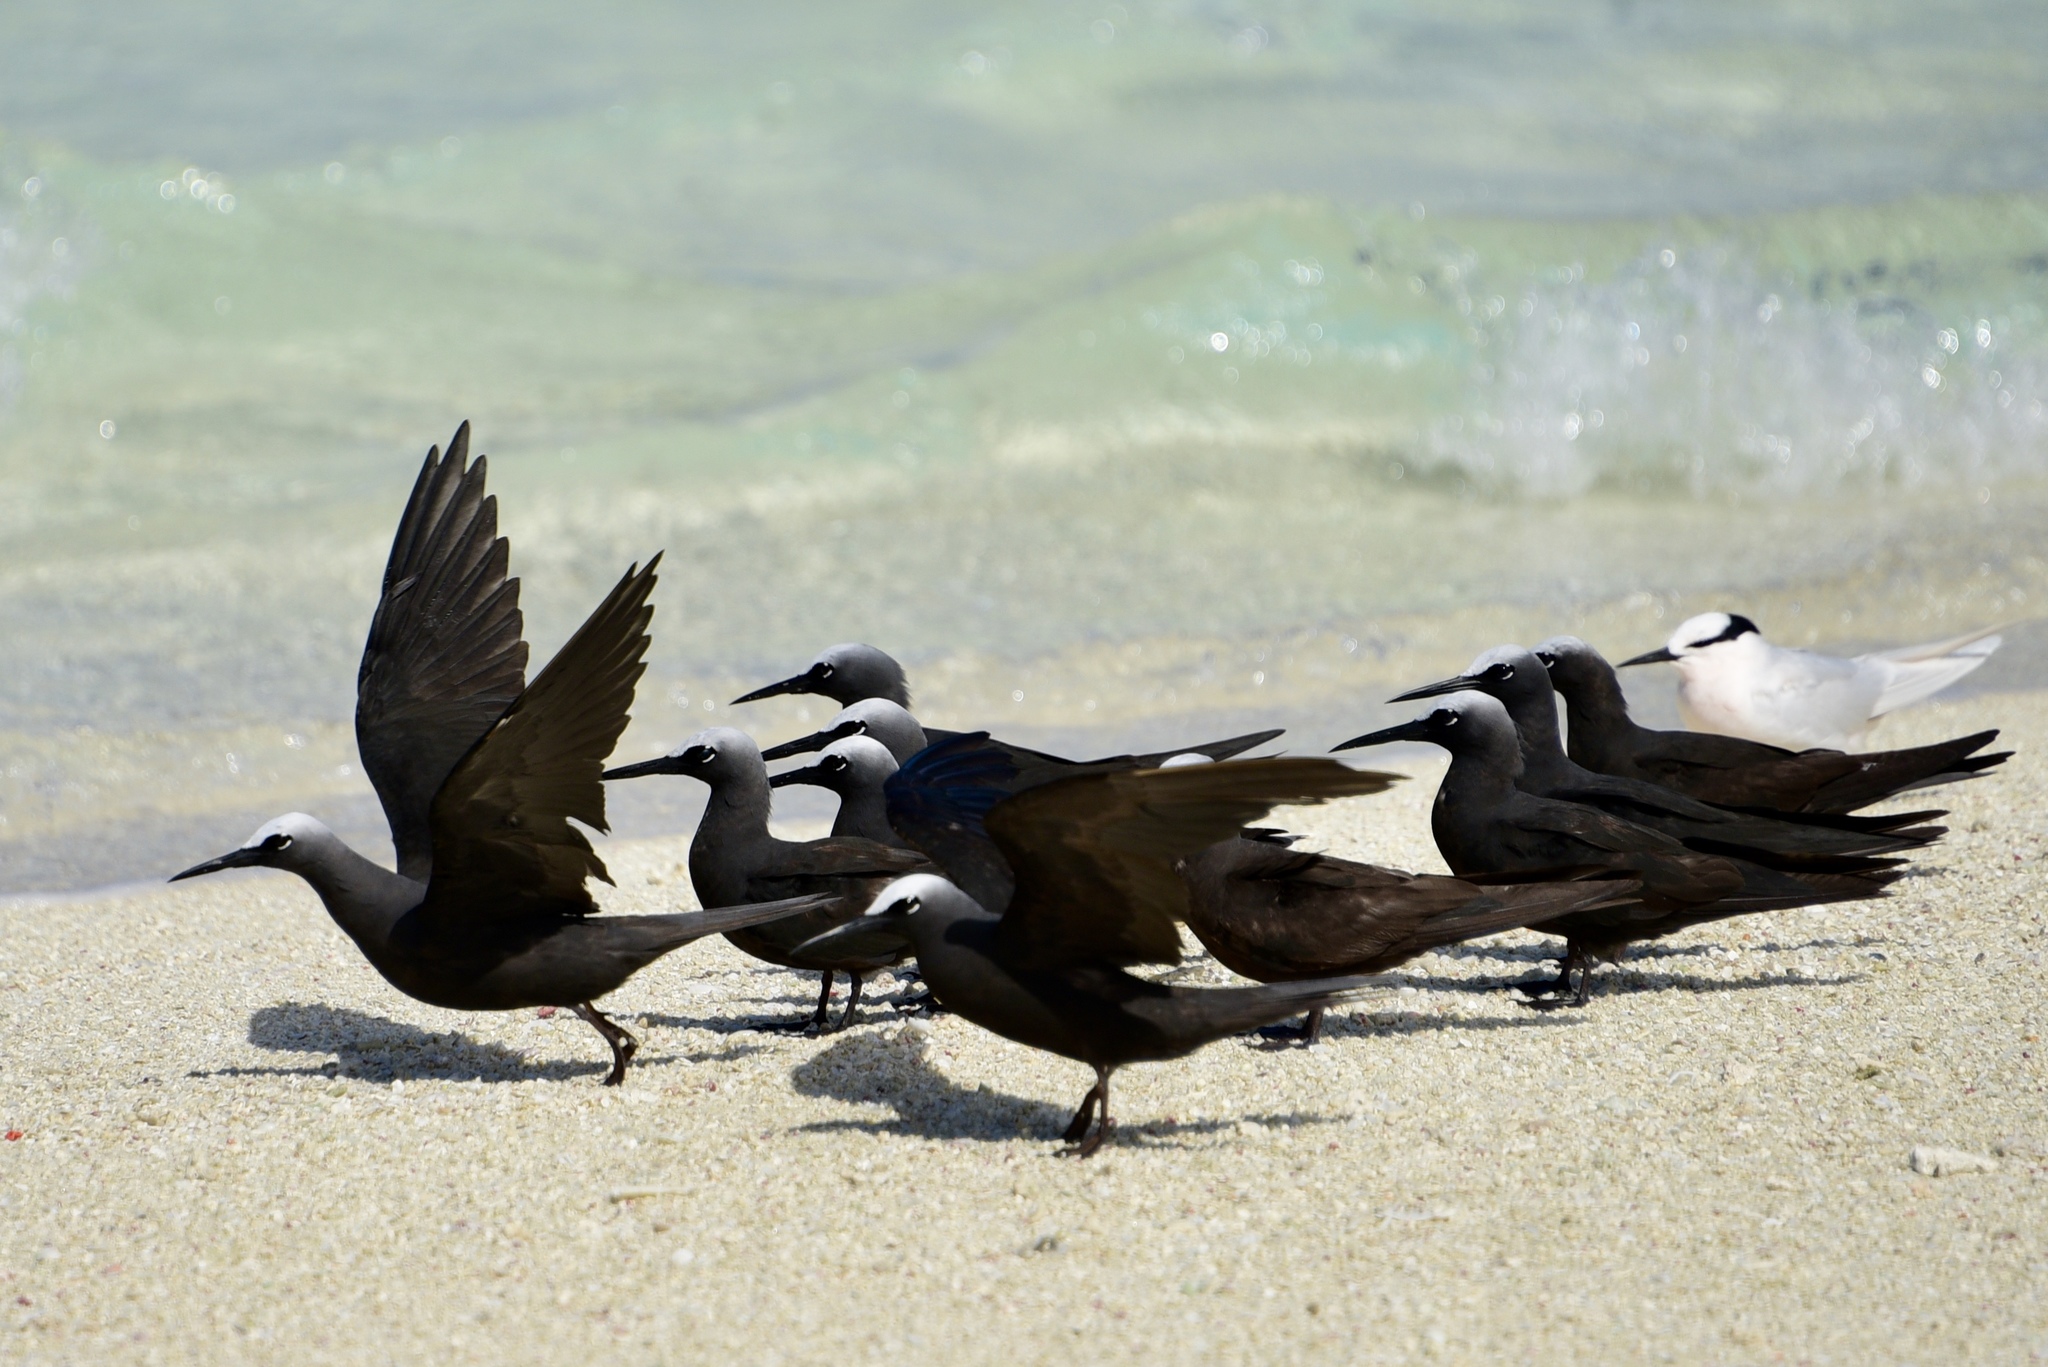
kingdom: Animalia
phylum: Chordata
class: Aves
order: Charadriiformes
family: Laridae
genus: Anous
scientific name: Anous minutus
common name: Black noddy
